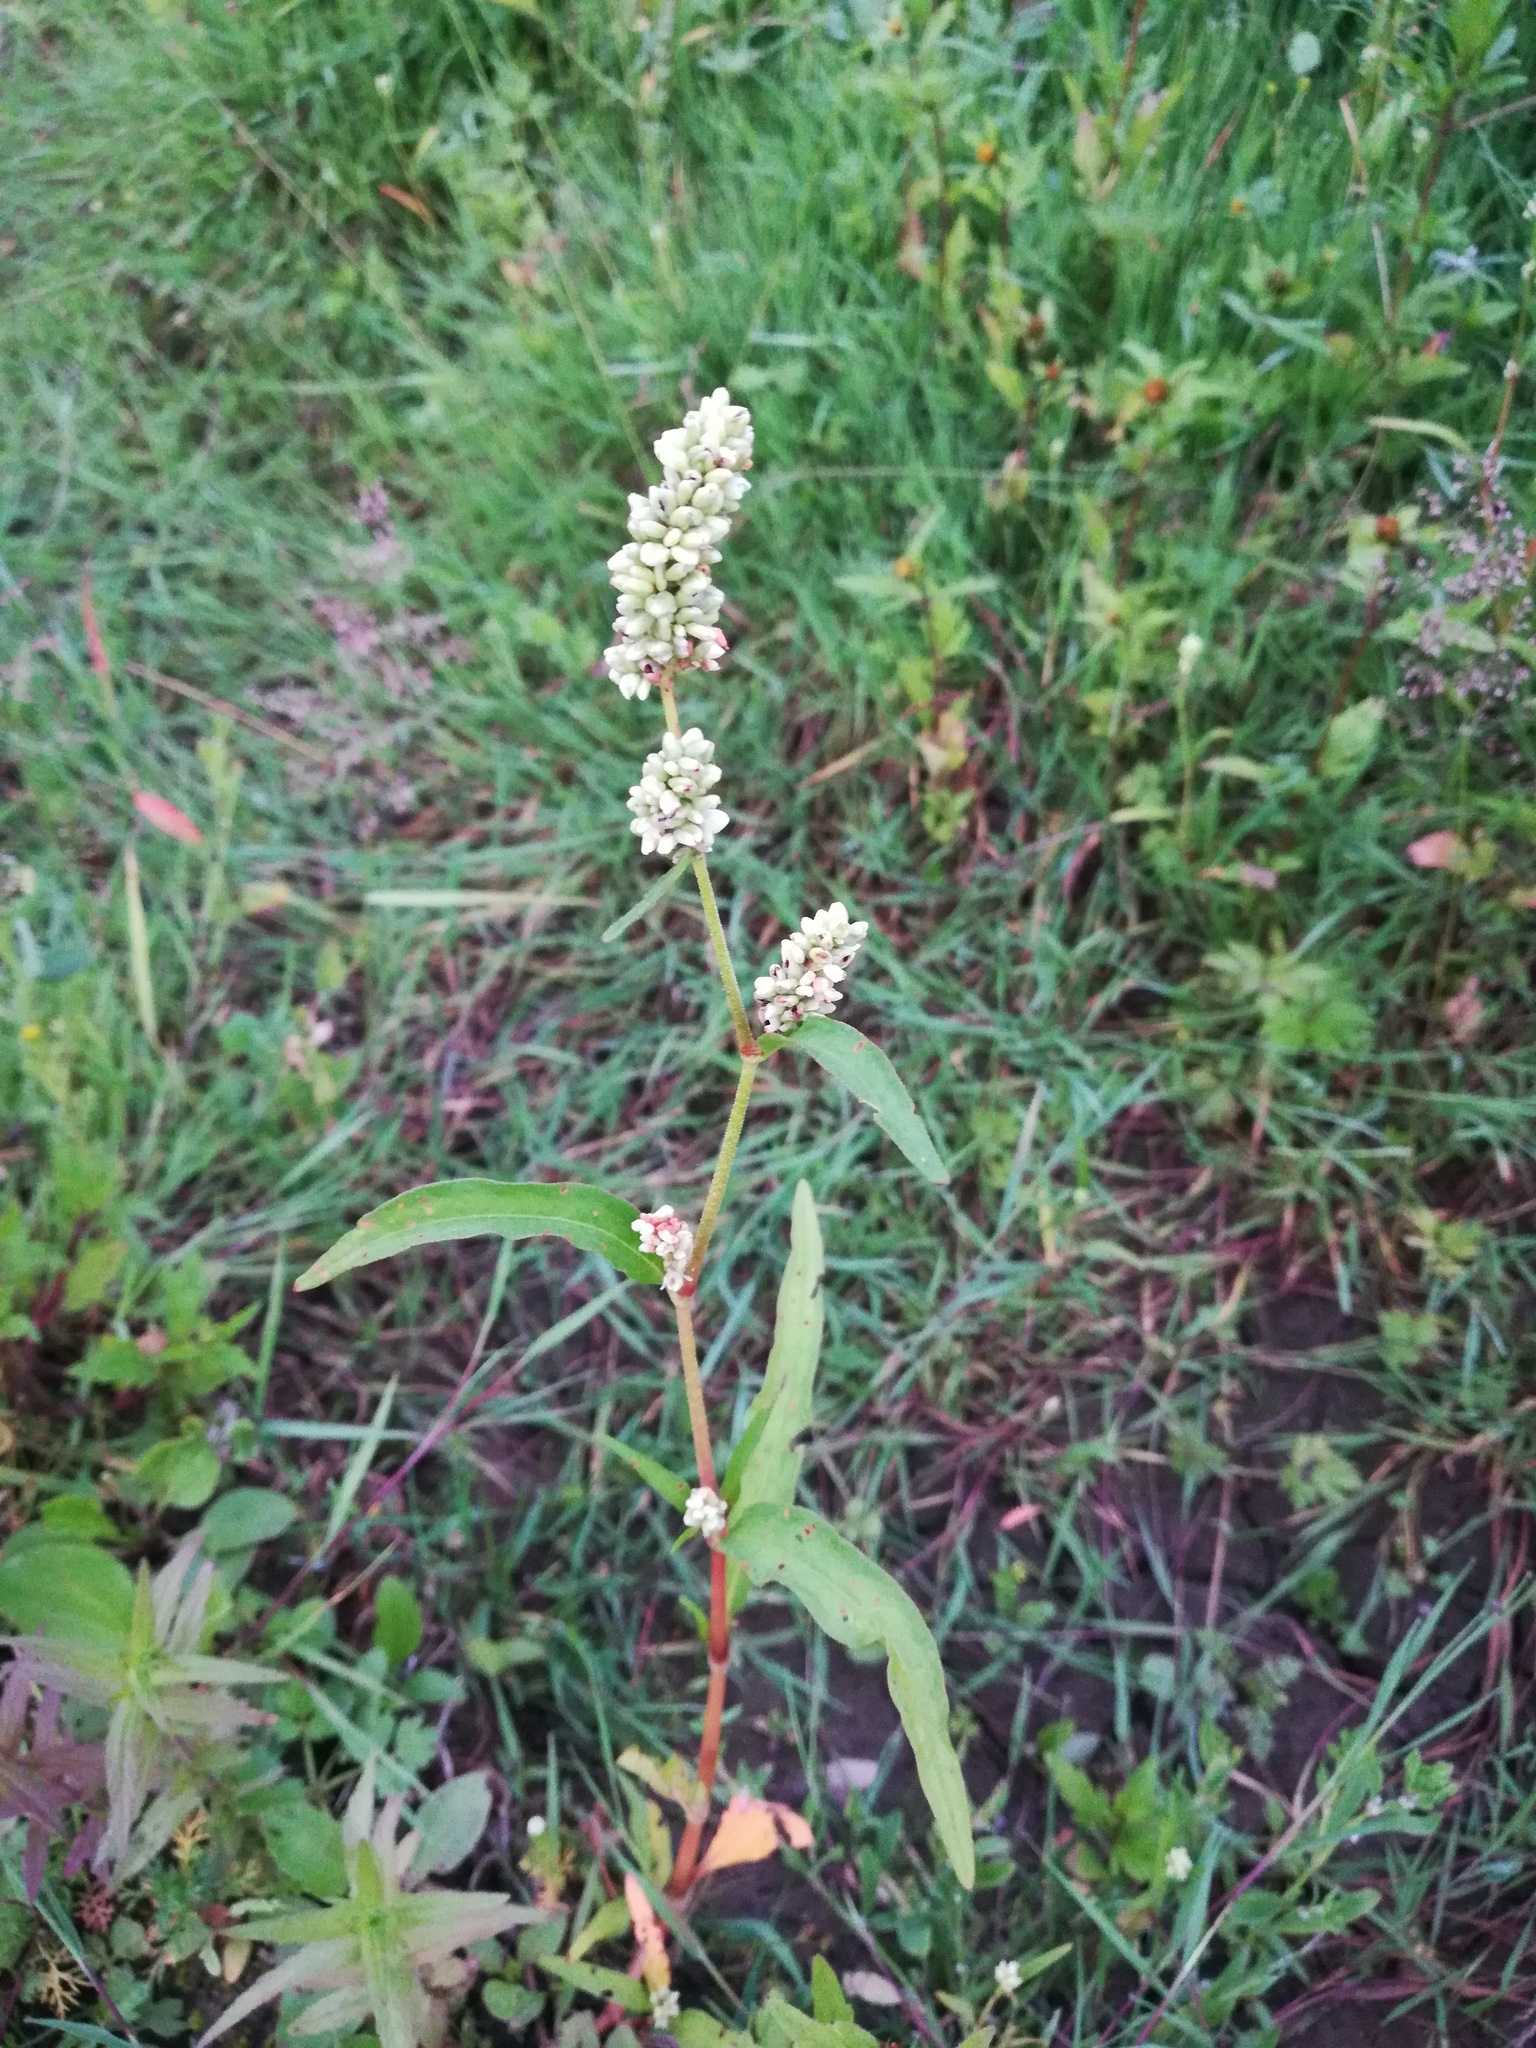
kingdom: Plantae
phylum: Tracheophyta
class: Magnoliopsida
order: Caryophyllales
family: Polygonaceae
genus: Persicaria
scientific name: Persicaria lapathifolia
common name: Curlytop knotweed
